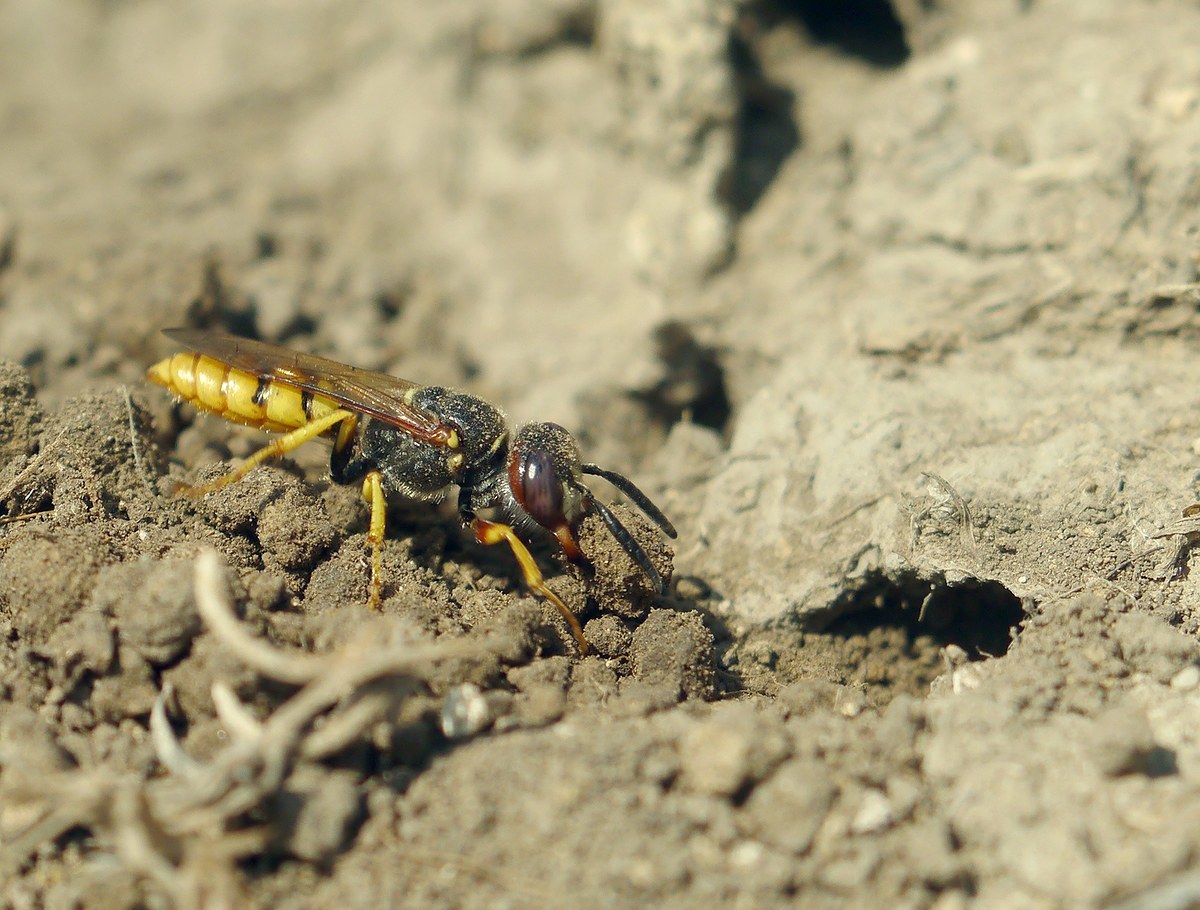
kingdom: Animalia
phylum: Arthropoda
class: Insecta
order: Hymenoptera
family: Crabronidae
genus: Philanthus
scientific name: Philanthus triangulum
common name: Bee wolf
